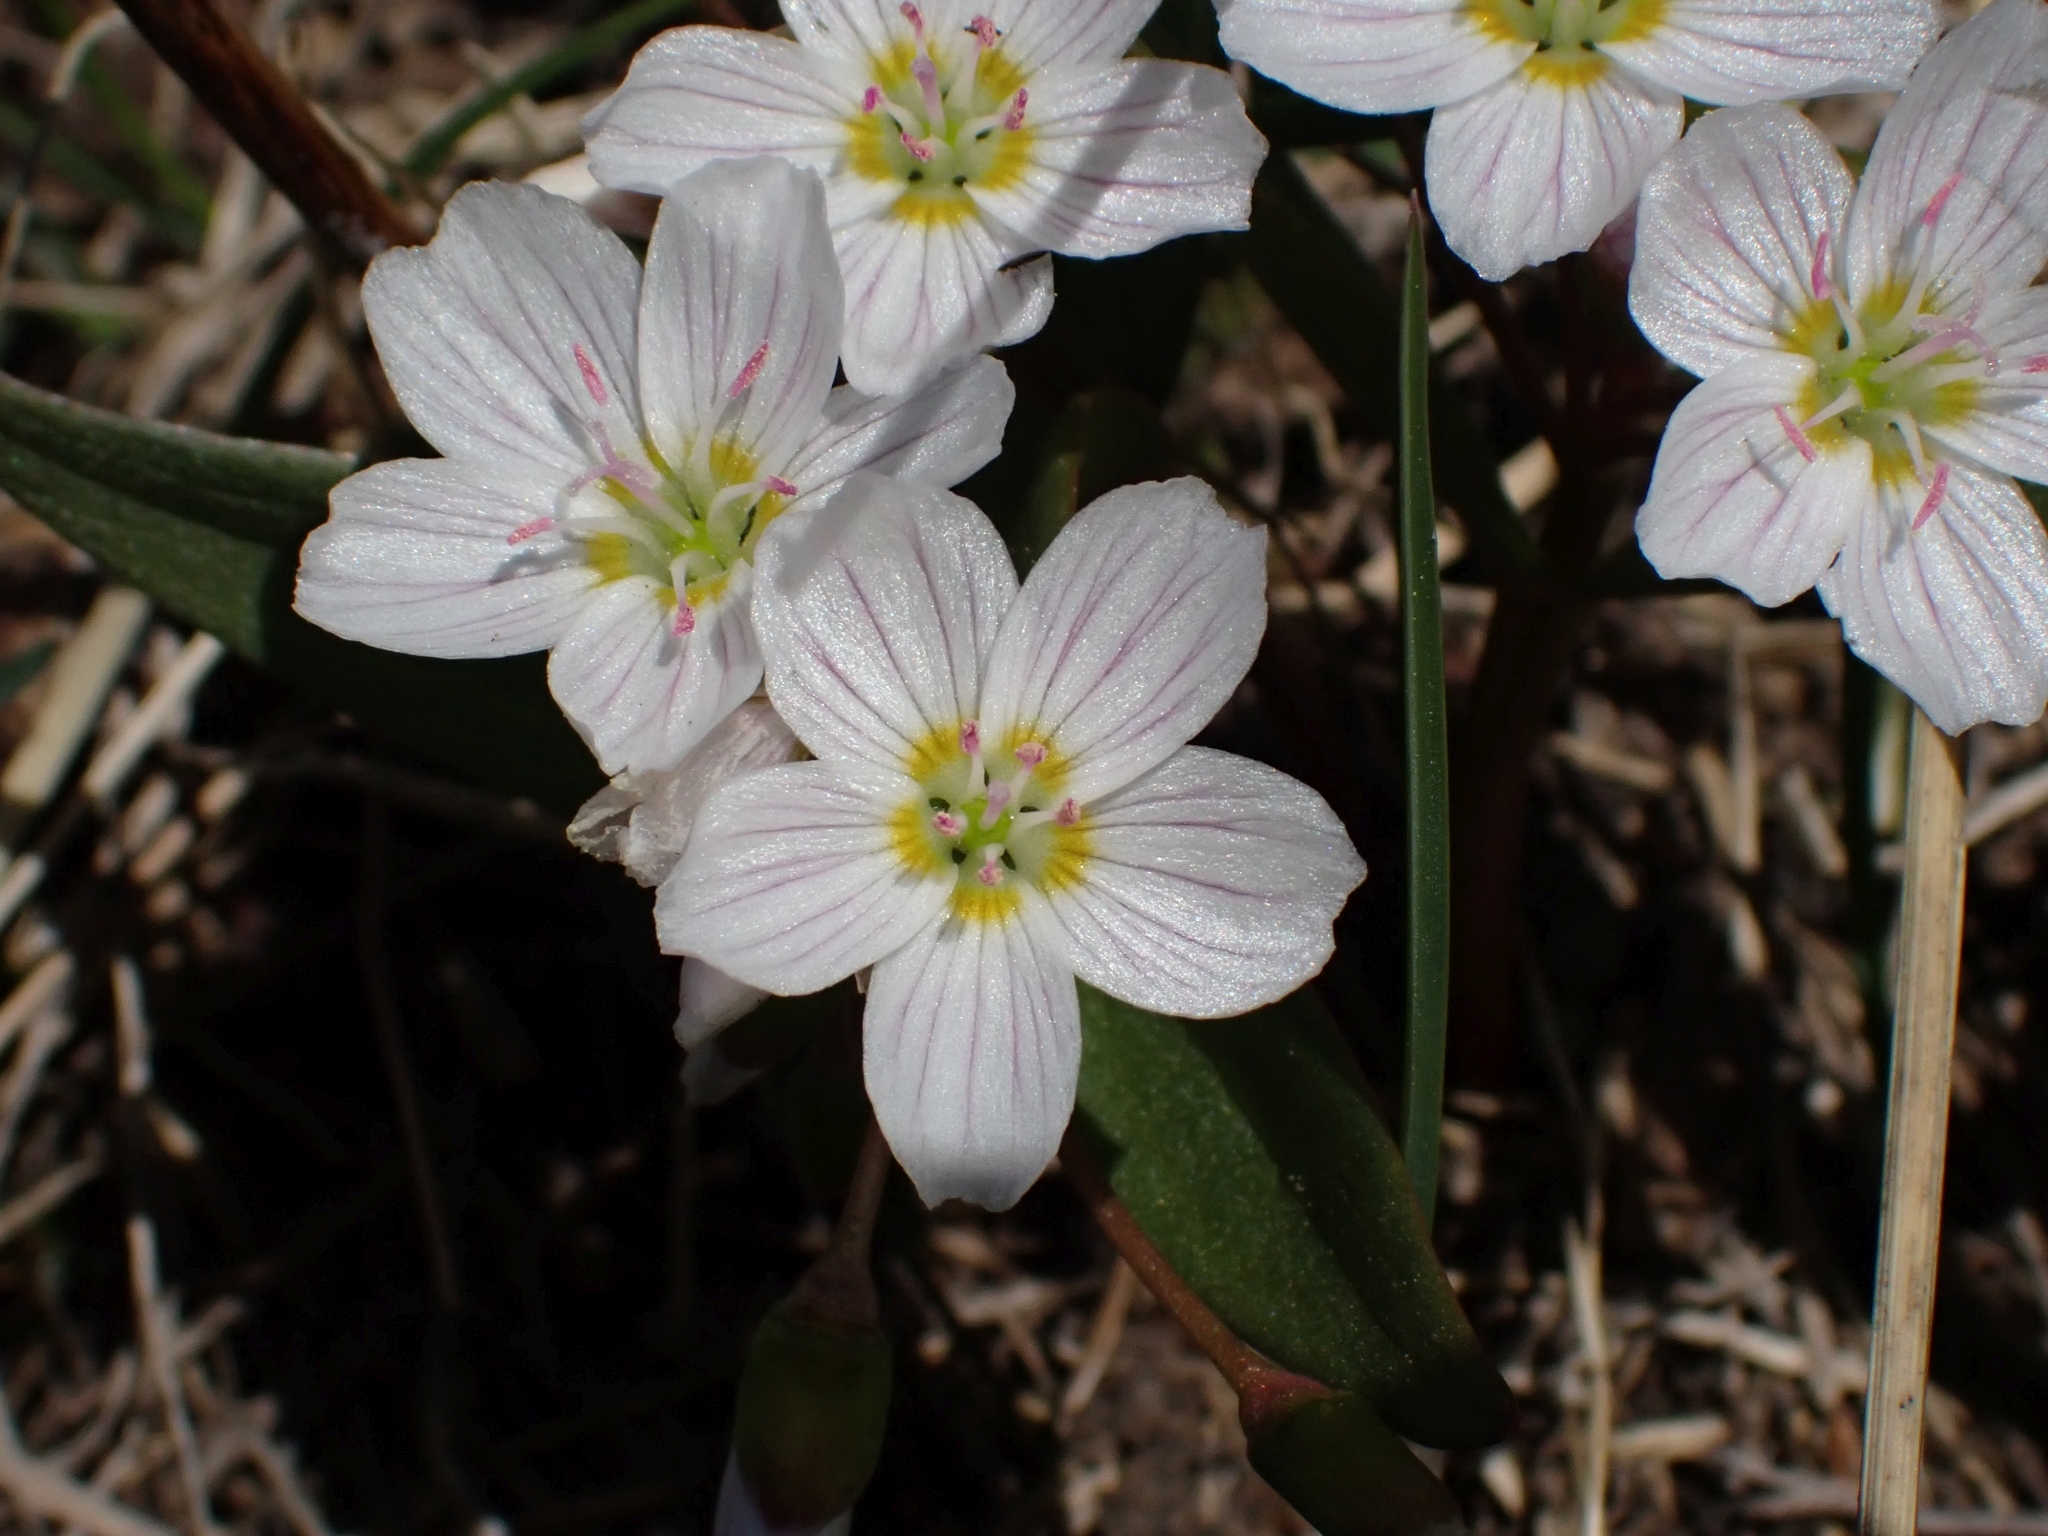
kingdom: Plantae
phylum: Tracheophyta
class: Magnoliopsida
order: Caryophyllales
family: Montiaceae
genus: Claytonia
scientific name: Claytonia lanceolata
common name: Western spring-beauty
